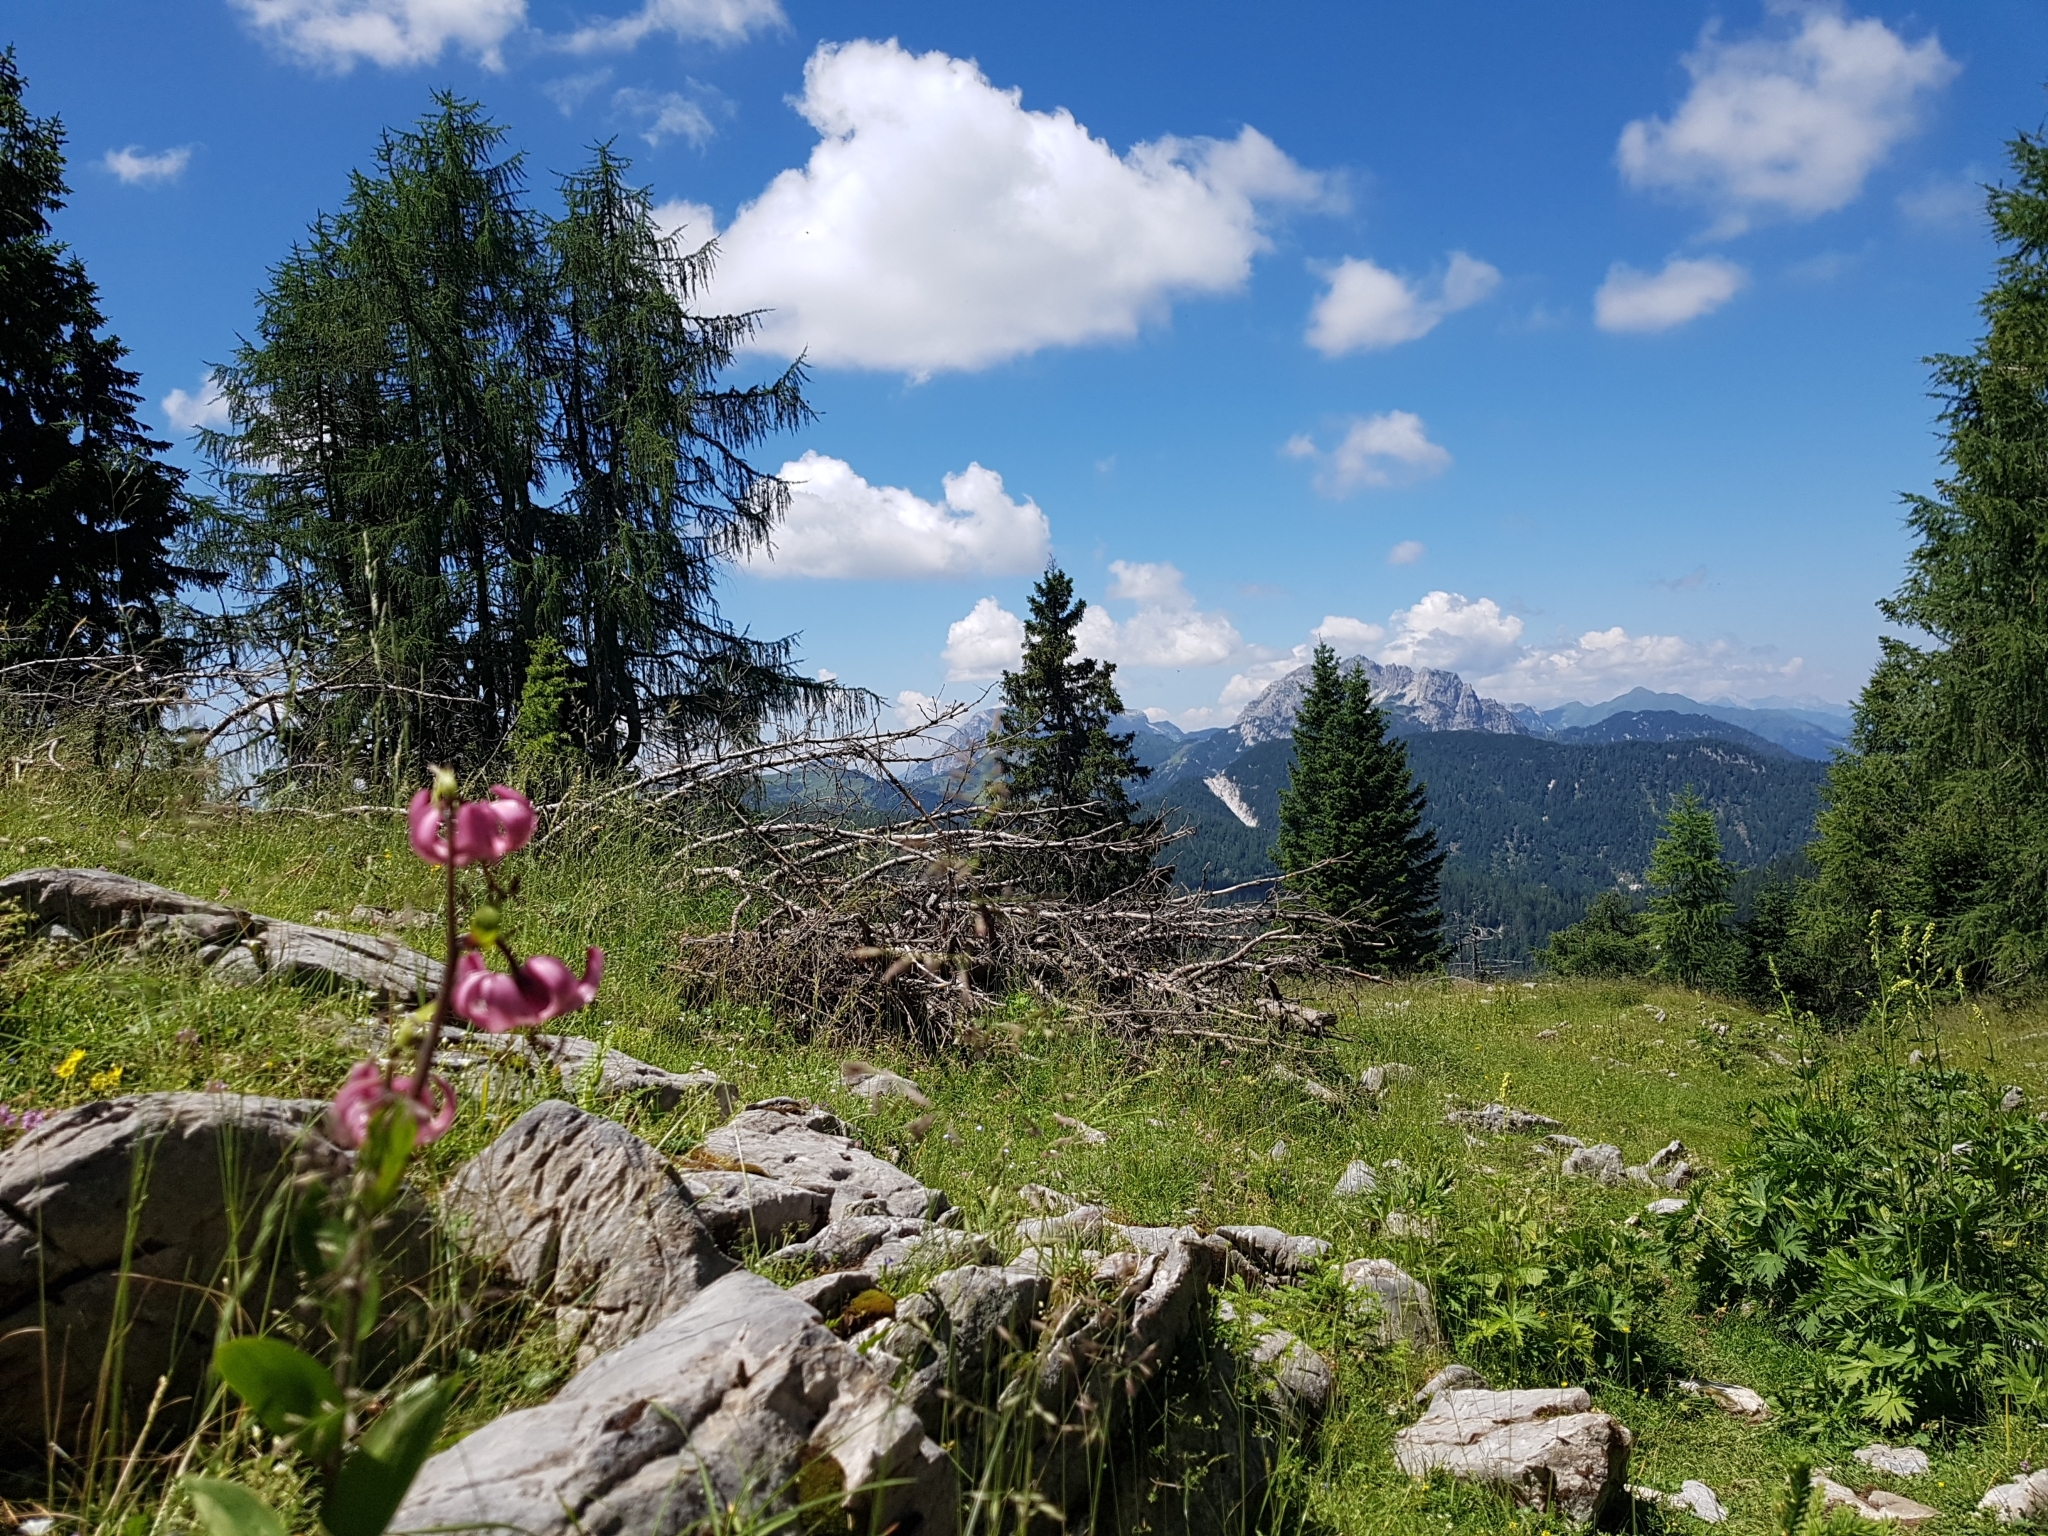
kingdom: Plantae
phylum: Tracheophyta
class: Liliopsida
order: Liliales
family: Liliaceae
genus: Lilium
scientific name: Lilium martagon
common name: Martagon lily
